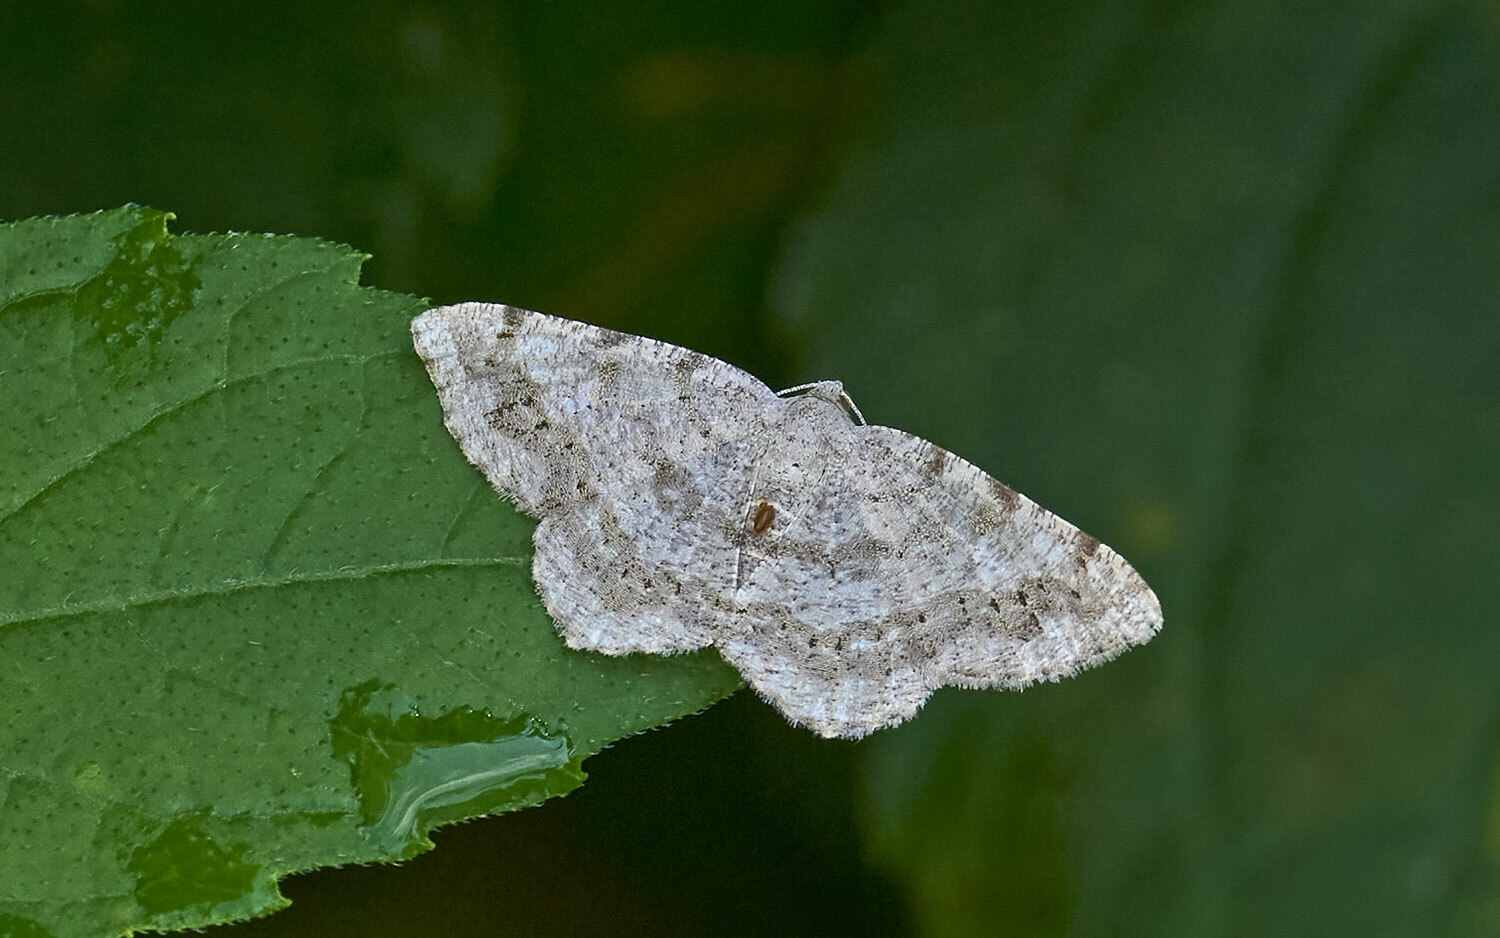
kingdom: Animalia
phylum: Arthropoda
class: Insecta
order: Lepidoptera
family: Geometridae
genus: Digrammia
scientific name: Digrammia ocellinata
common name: Faint-spotted angle
